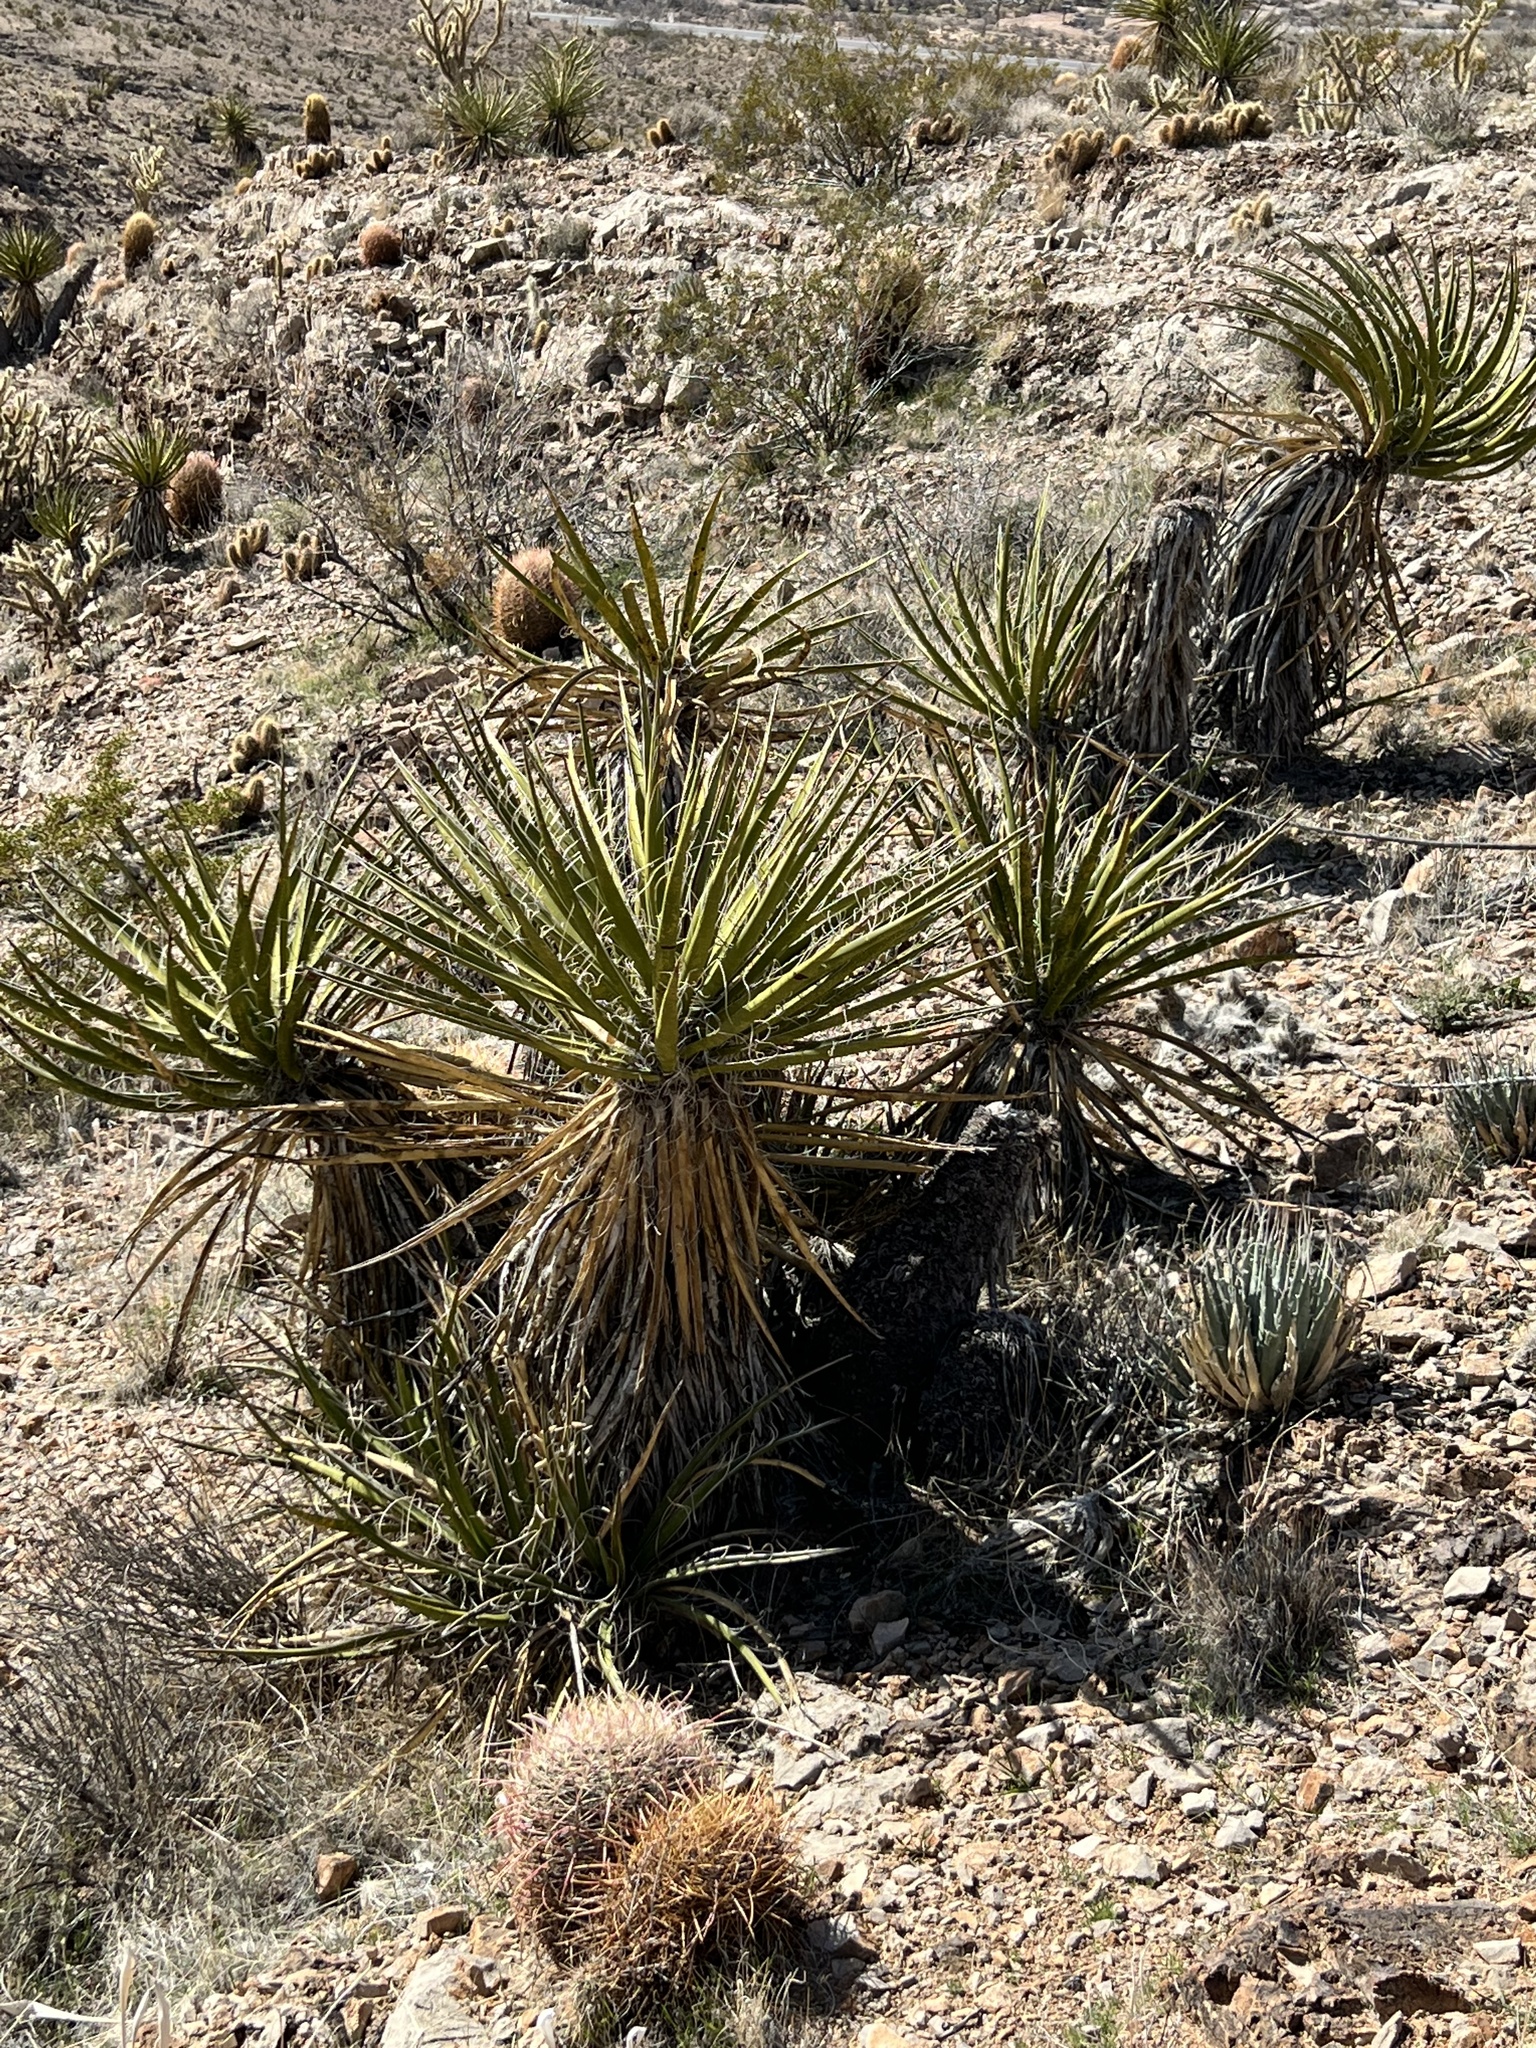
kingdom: Plantae
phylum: Tracheophyta
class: Liliopsida
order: Asparagales
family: Asparagaceae
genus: Yucca
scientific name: Yucca schidigera
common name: Mojave yucca
